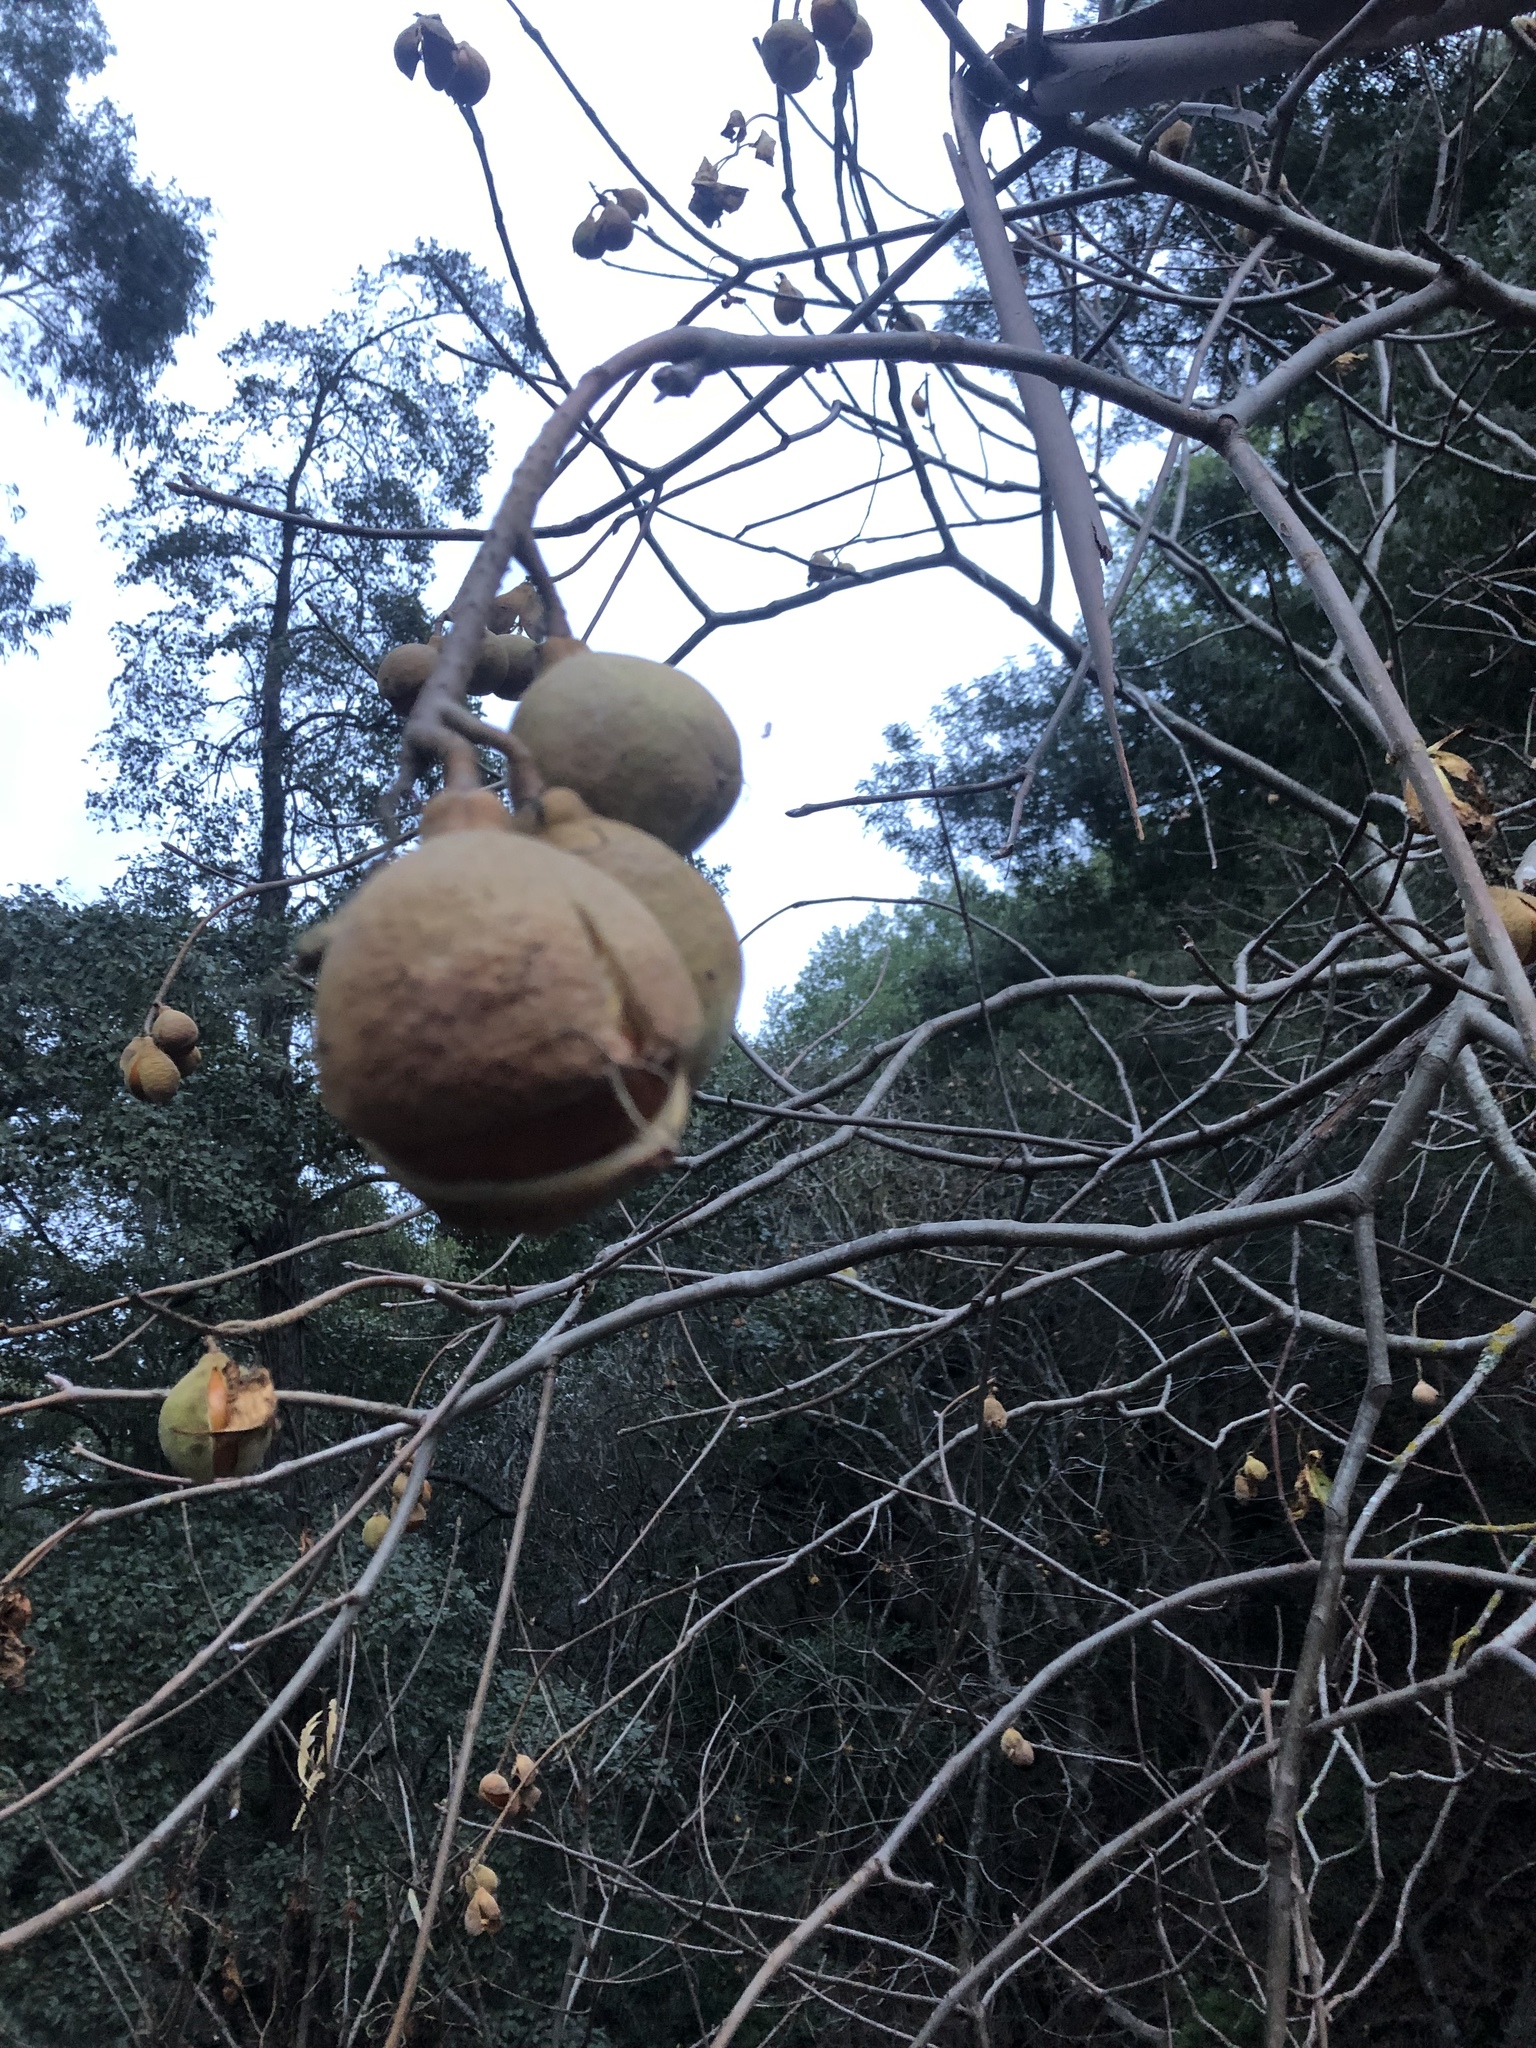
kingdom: Plantae
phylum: Tracheophyta
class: Magnoliopsida
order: Sapindales
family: Sapindaceae
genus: Aesculus
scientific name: Aesculus californica
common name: California buckeye
